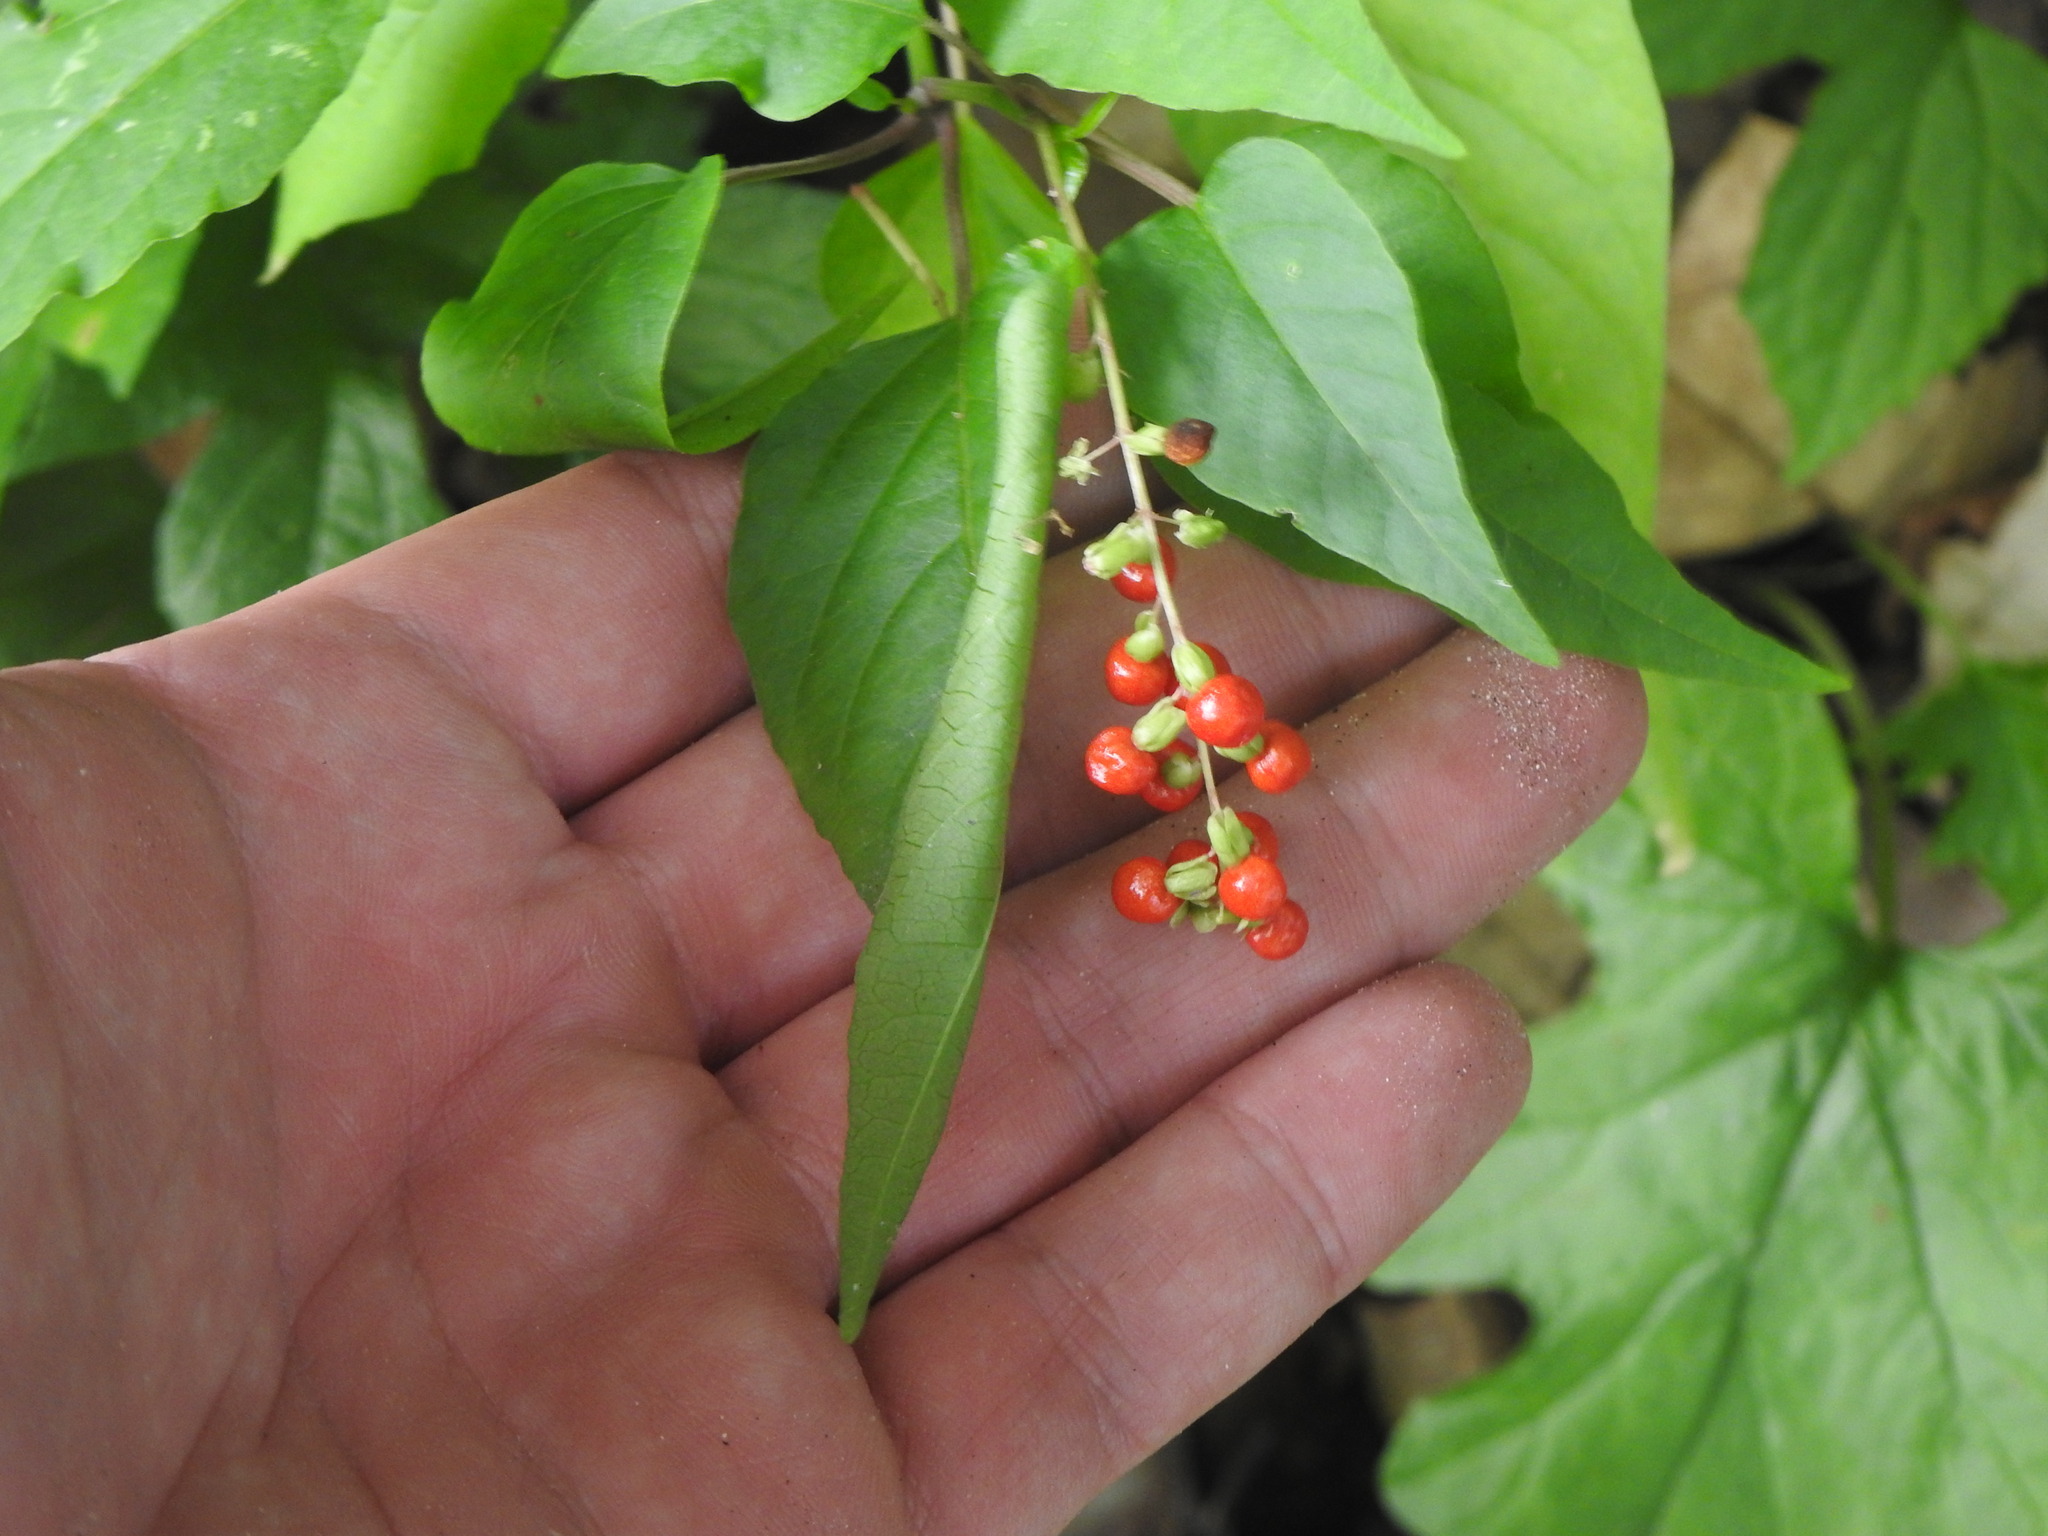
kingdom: Plantae
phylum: Tracheophyta
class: Magnoliopsida
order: Caryophyllales
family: Phytolaccaceae
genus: Rivina
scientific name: Rivina humilis
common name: Rougeplant
